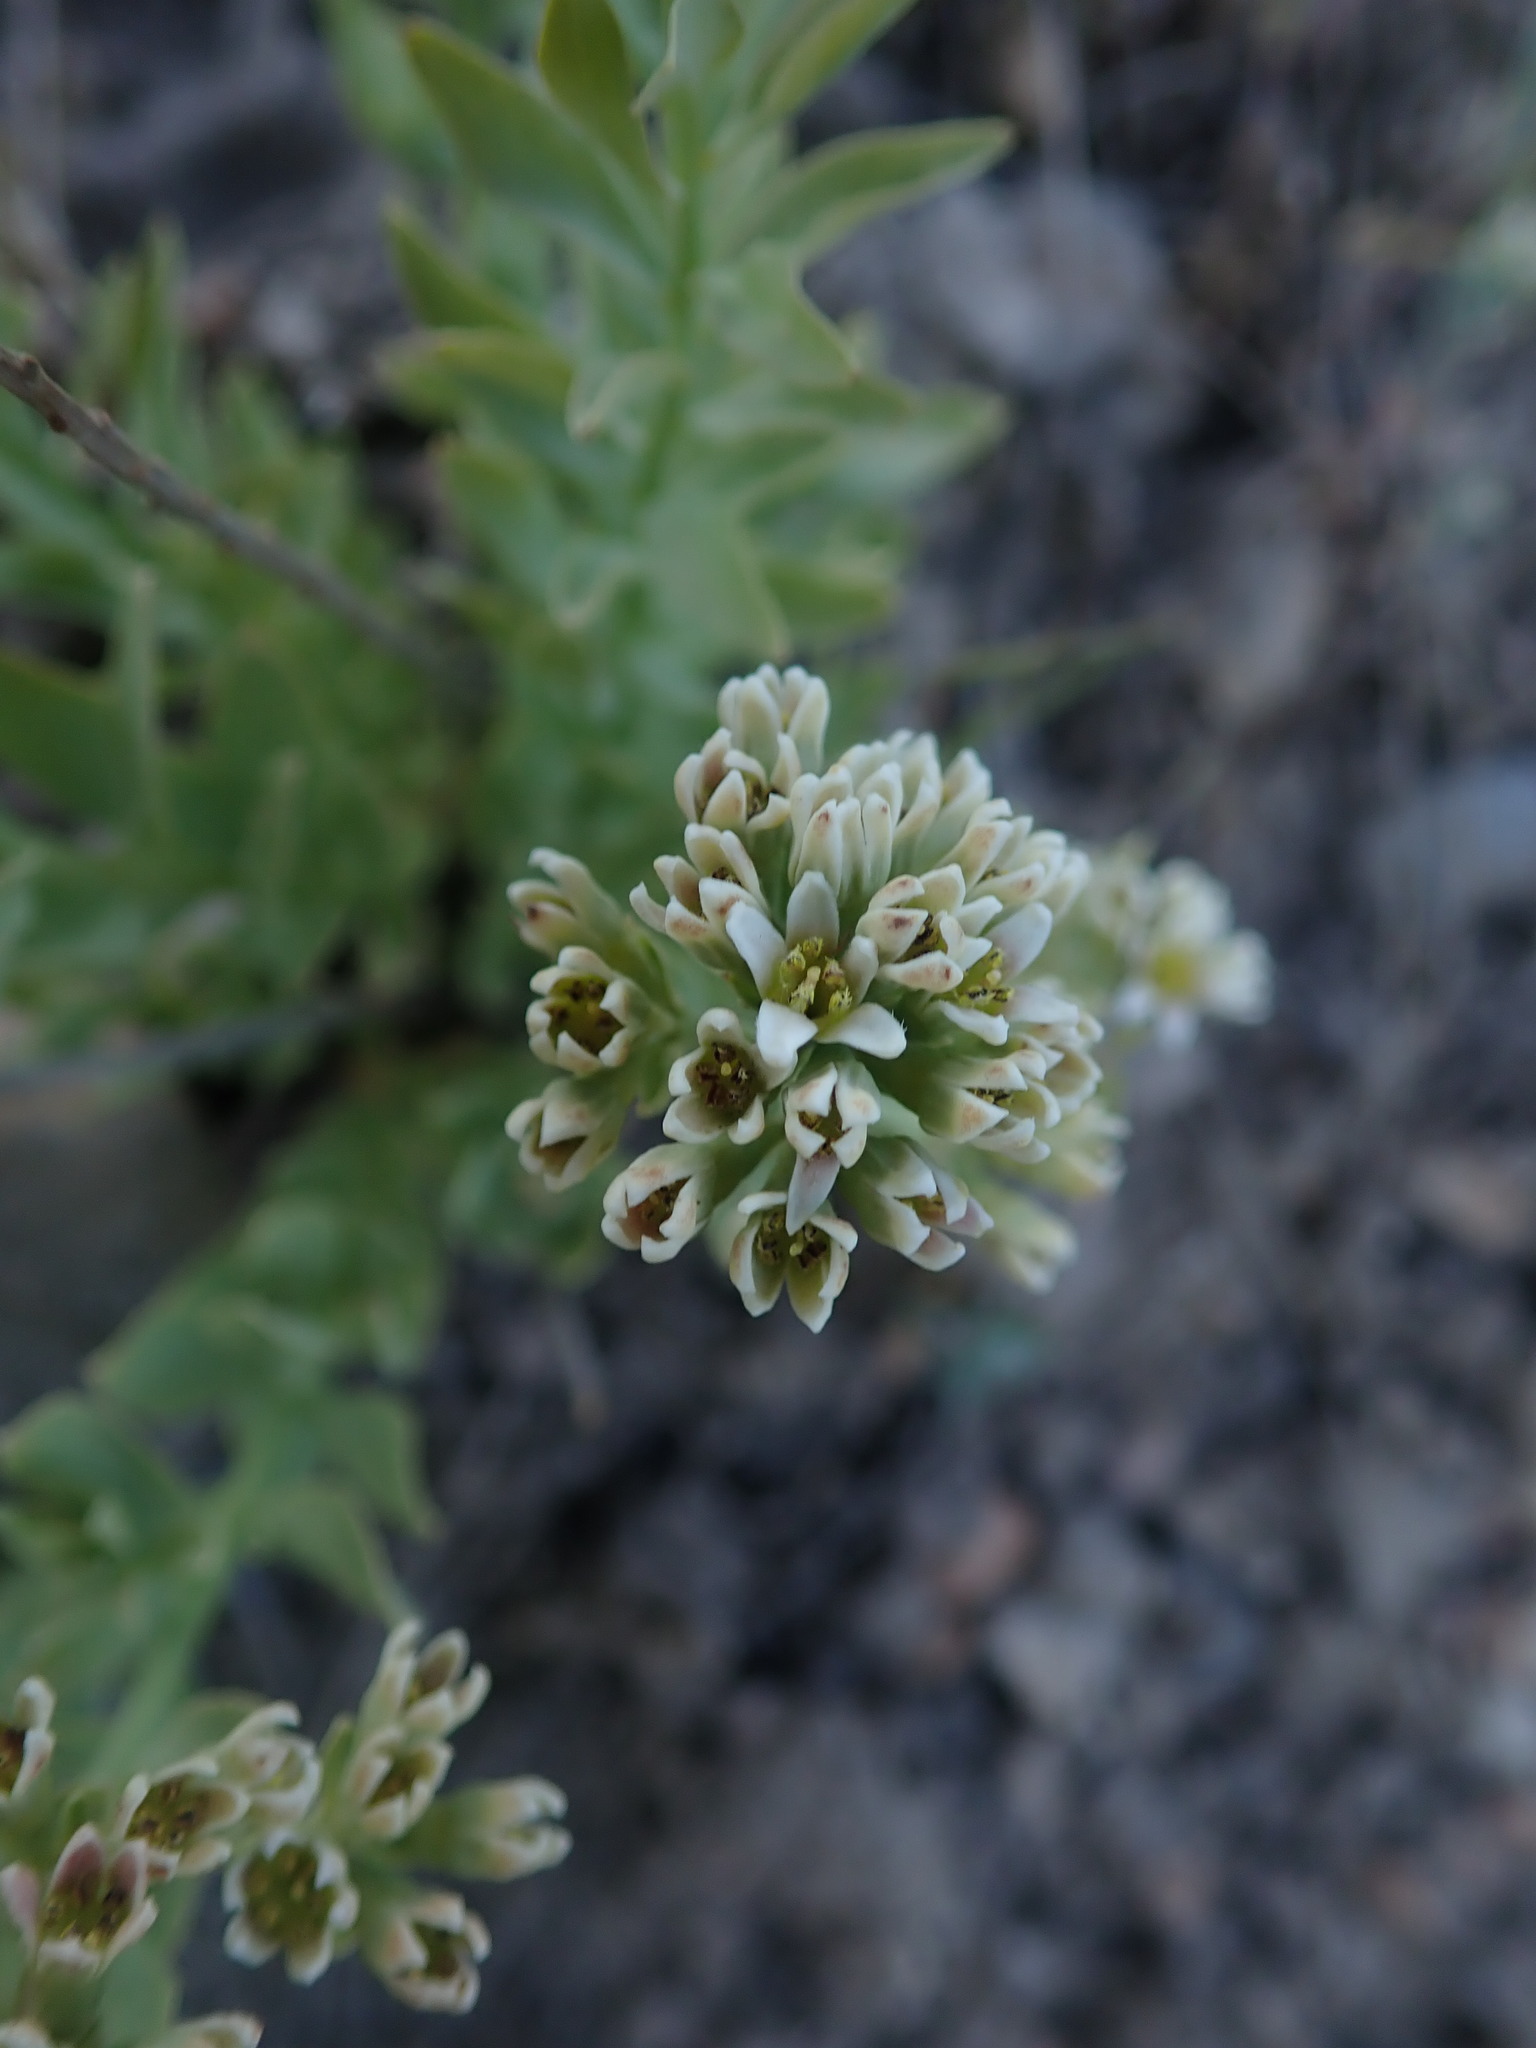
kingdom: Plantae
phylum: Tracheophyta
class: Magnoliopsida
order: Santalales
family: Comandraceae
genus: Comandra
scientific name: Comandra umbellata
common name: Bastard toadflax
